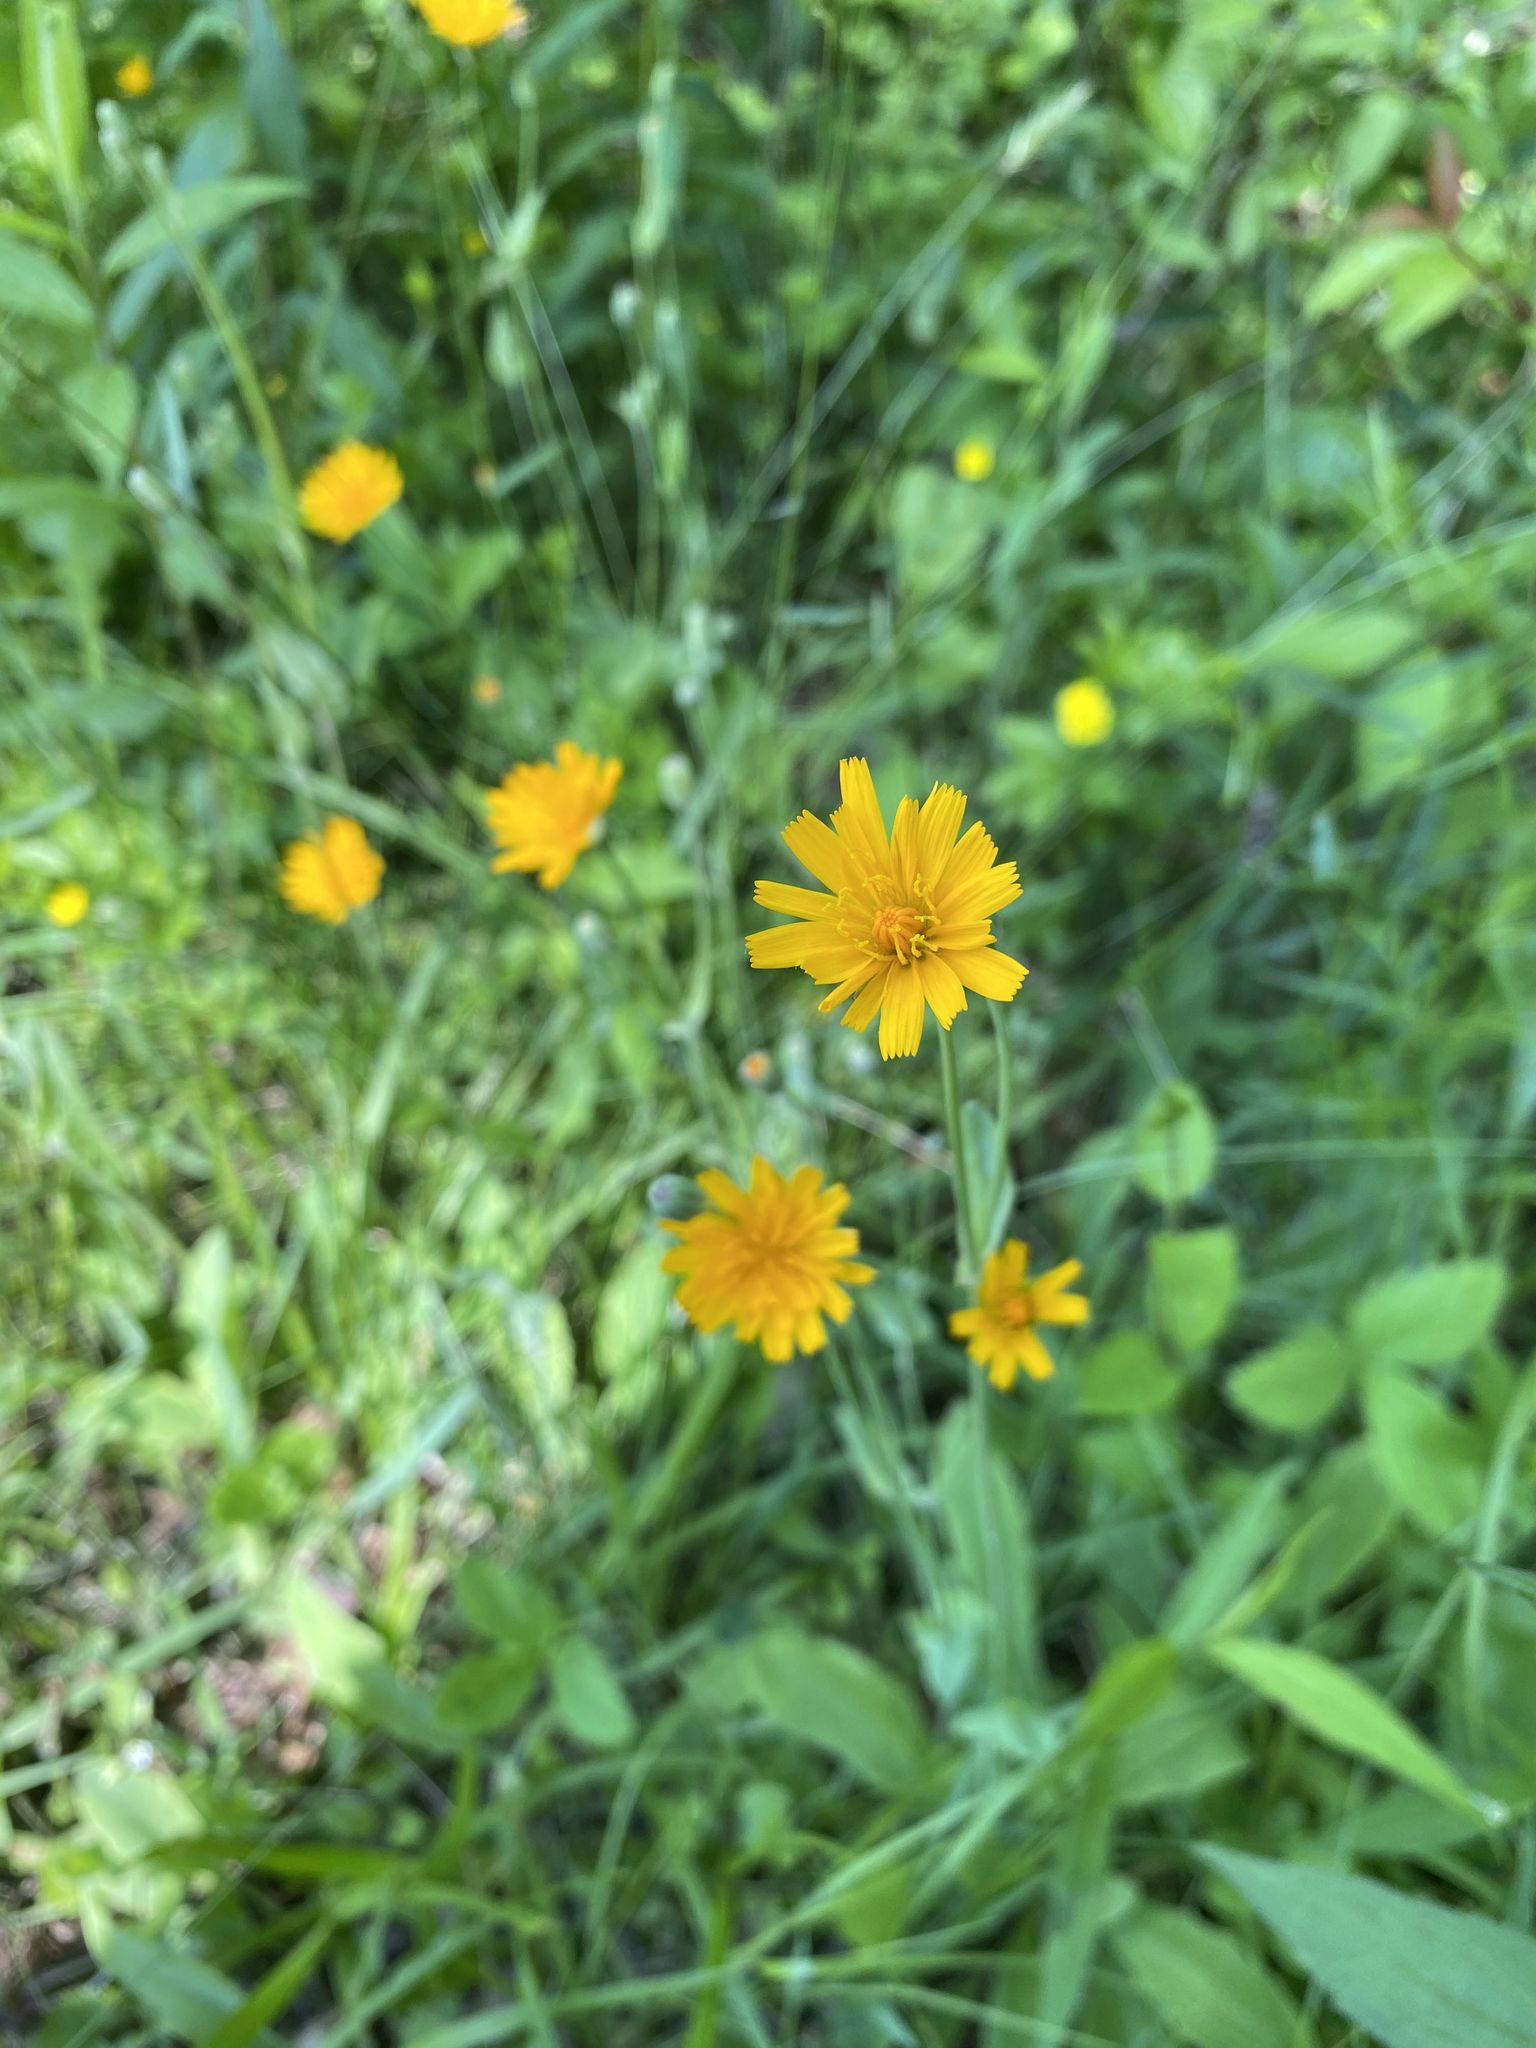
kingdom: Plantae
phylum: Tracheophyta
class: Magnoliopsida
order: Asterales
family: Asteraceae
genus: Krigia
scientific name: Krigia biflora
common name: Orange dwarf-dandelion
